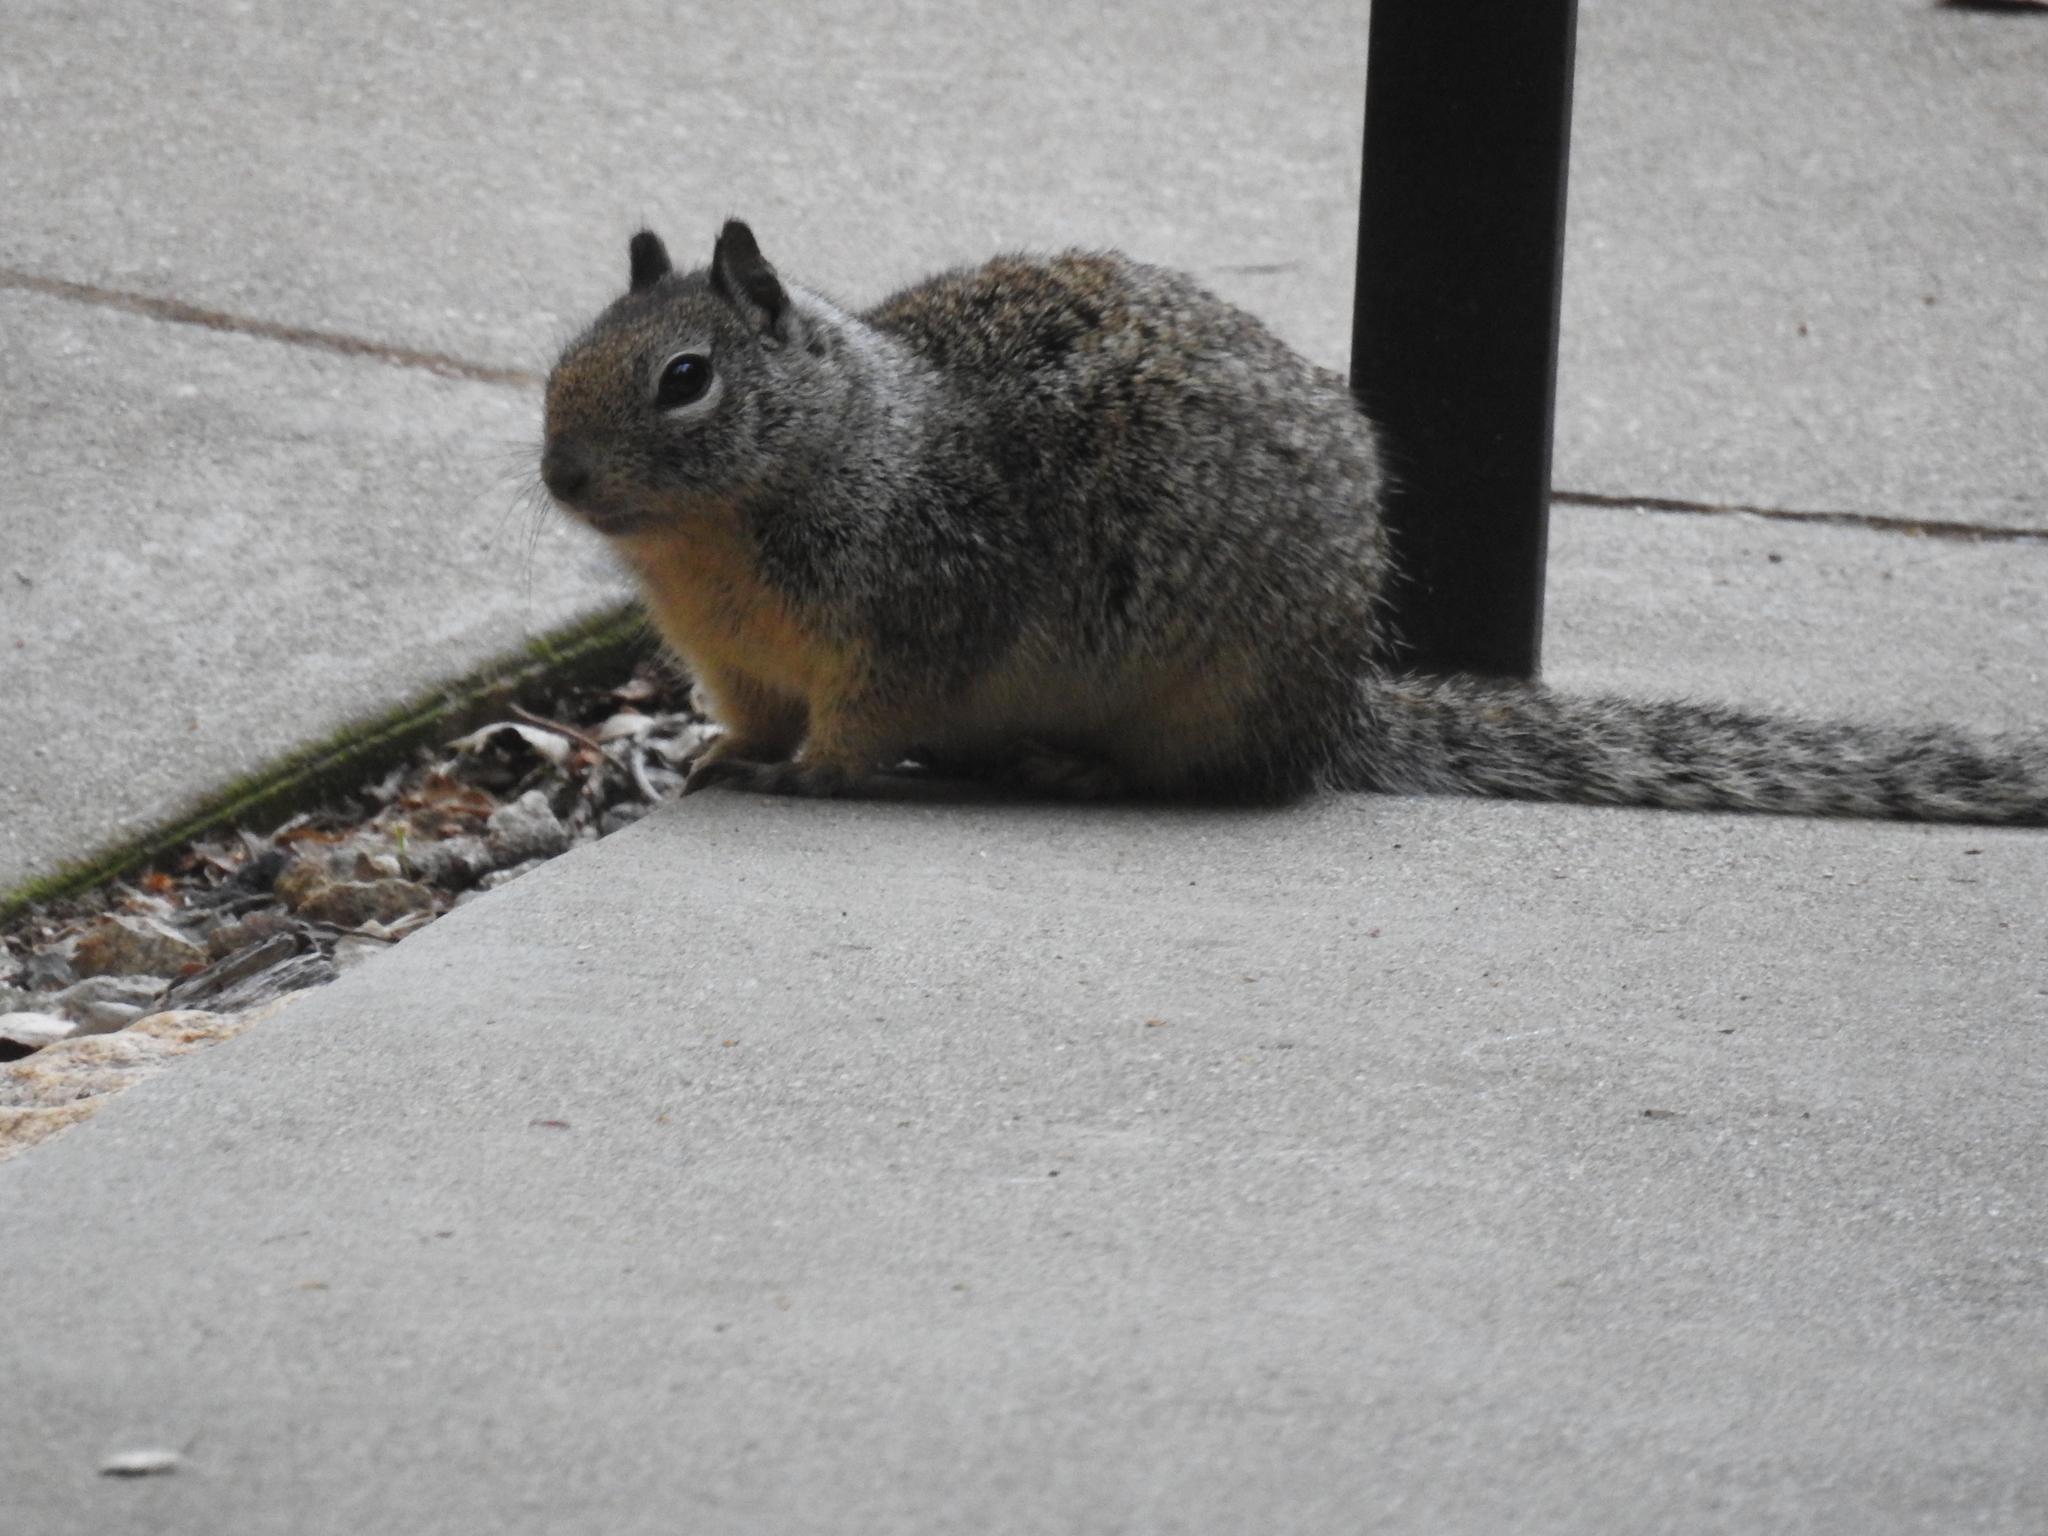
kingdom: Animalia
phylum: Chordata
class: Mammalia
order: Rodentia
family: Sciuridae
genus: Otospermophilus
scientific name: Otospermophilus beecheyi
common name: California ground squirrel
